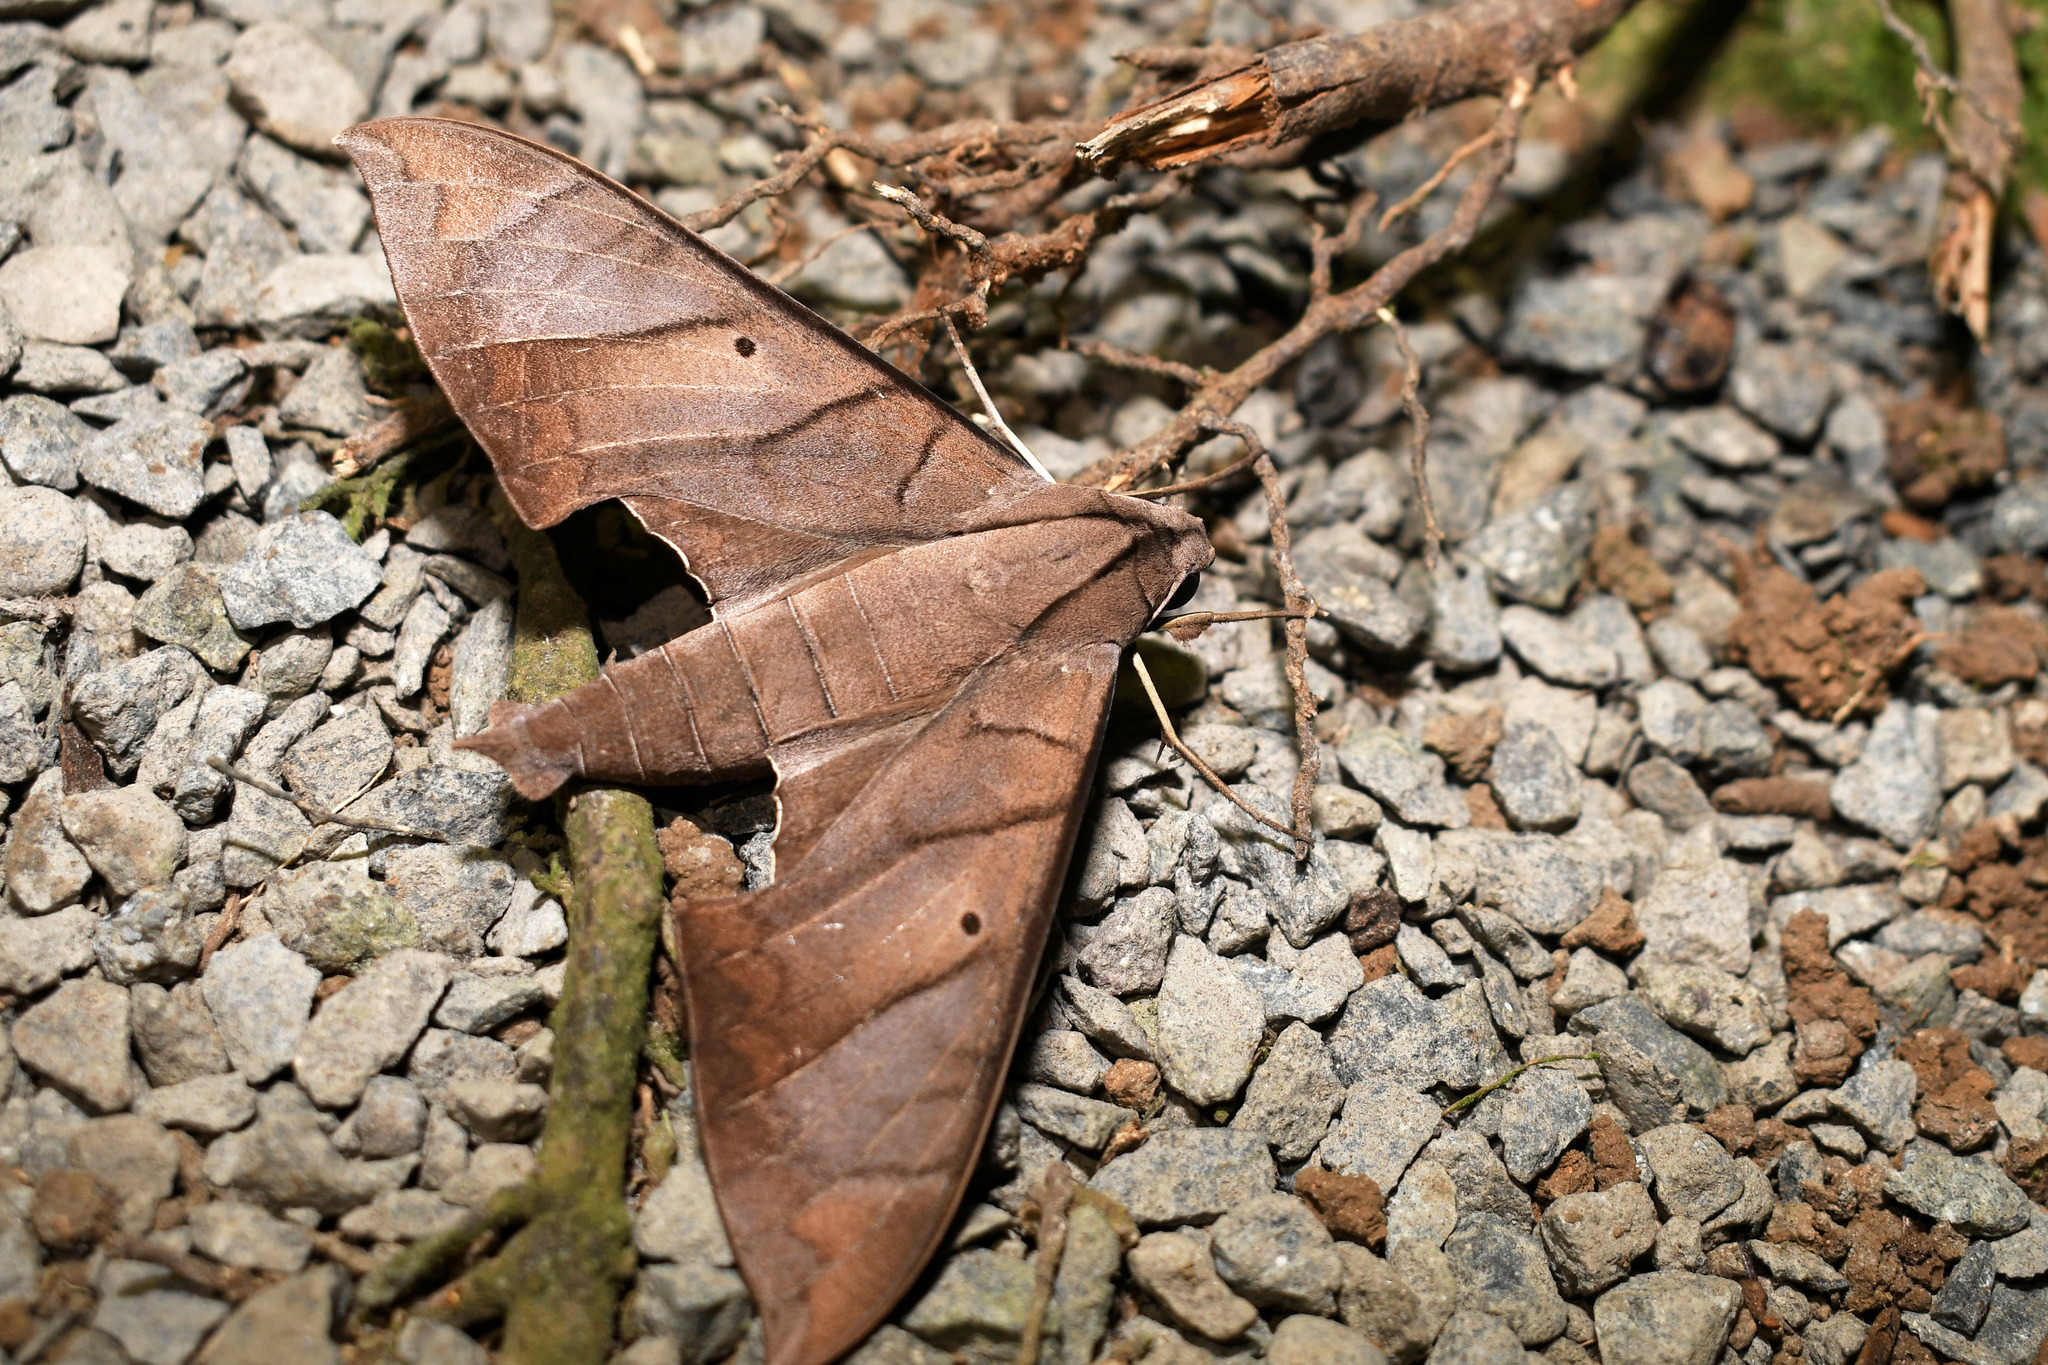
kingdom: Animalia
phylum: Arthropoda
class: Insecta
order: Lepidoptera
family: Sphingidae
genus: Pachylia
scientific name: Pachylia darceta
